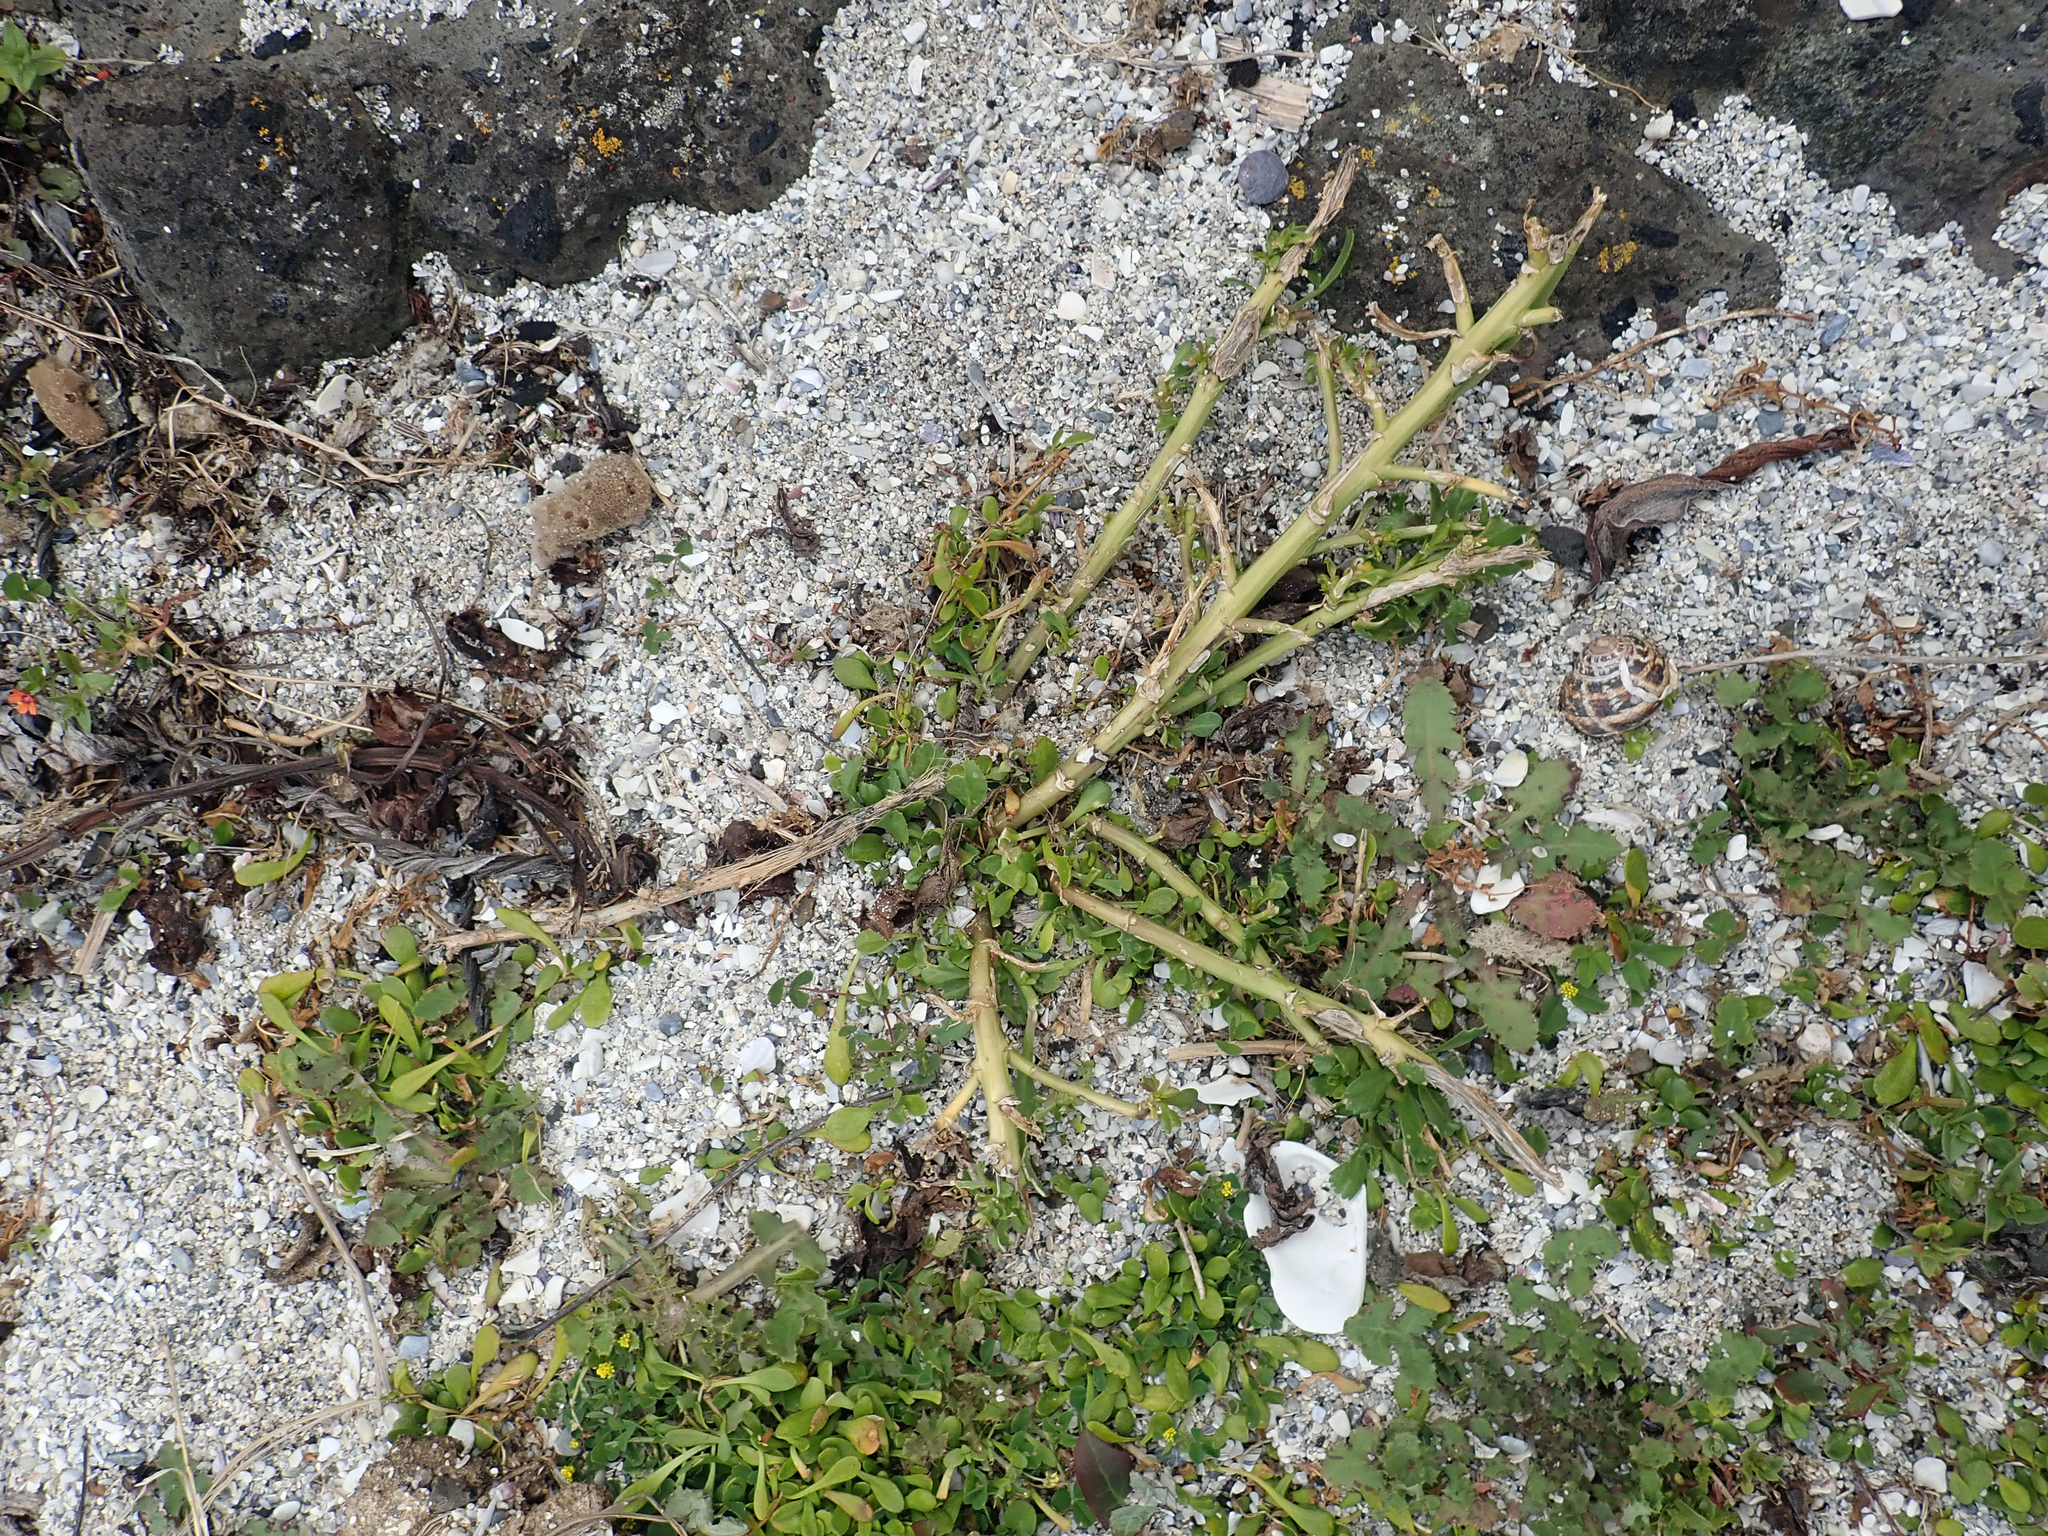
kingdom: Plantae
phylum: Tracheophyta
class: Magnoliopsida
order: Brassicales
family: Brassicaceae
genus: Lepidium
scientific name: Lepidium rekohuense
